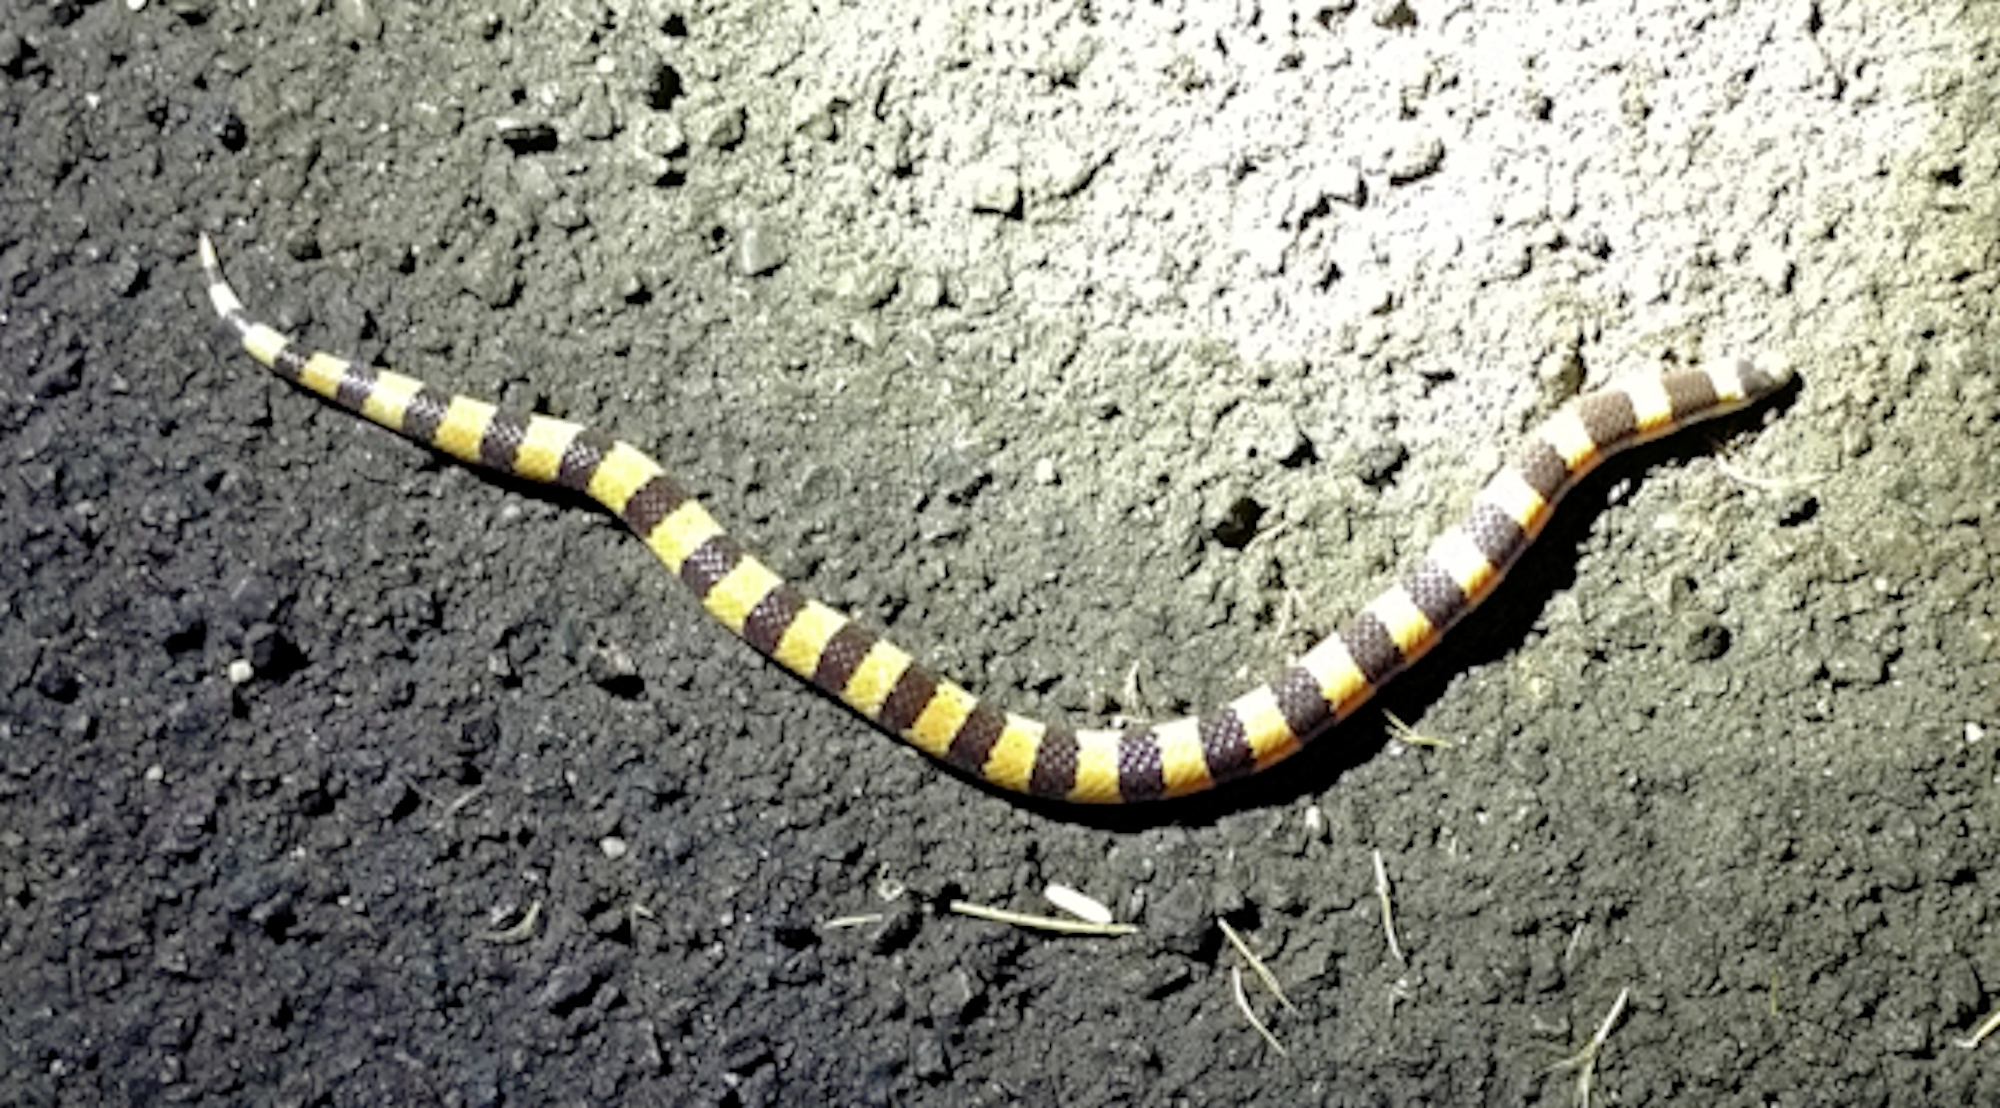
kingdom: Animalia
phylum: Chordata
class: Squamata
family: Colubridae
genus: Sonora
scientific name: Sonora cincta
